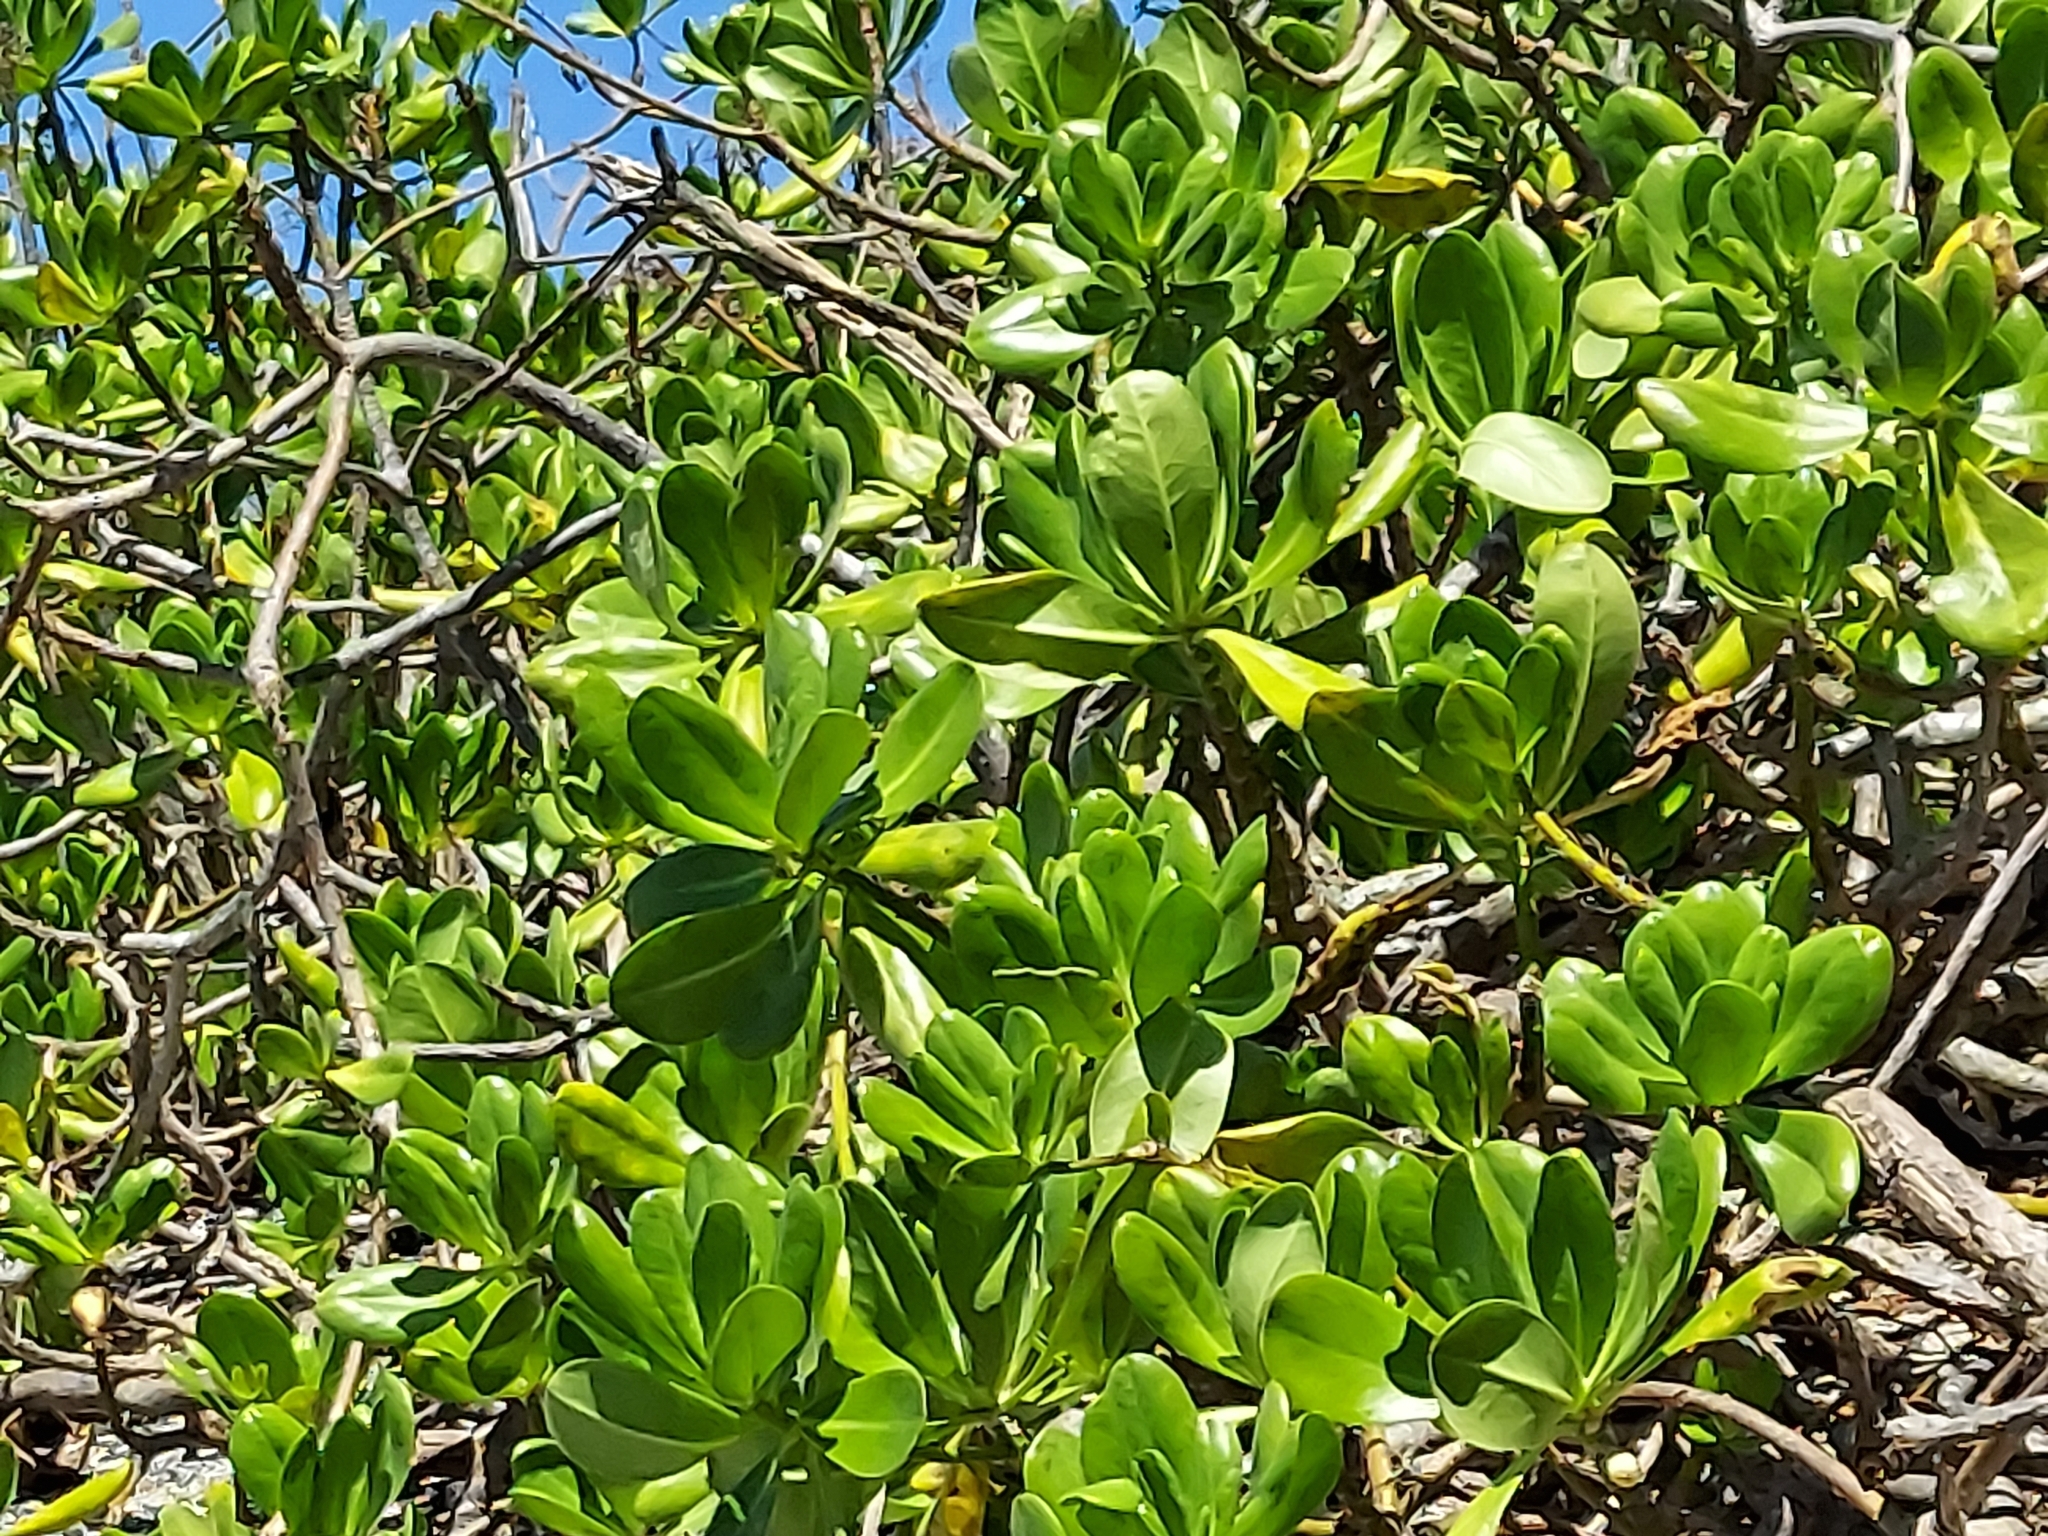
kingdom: Plantae
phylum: Tracheophyta
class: Magnoliopsida
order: Asterales
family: Goodeniaceae
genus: Scaevola
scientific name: Scaevola taccada
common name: Sea lettucetree
